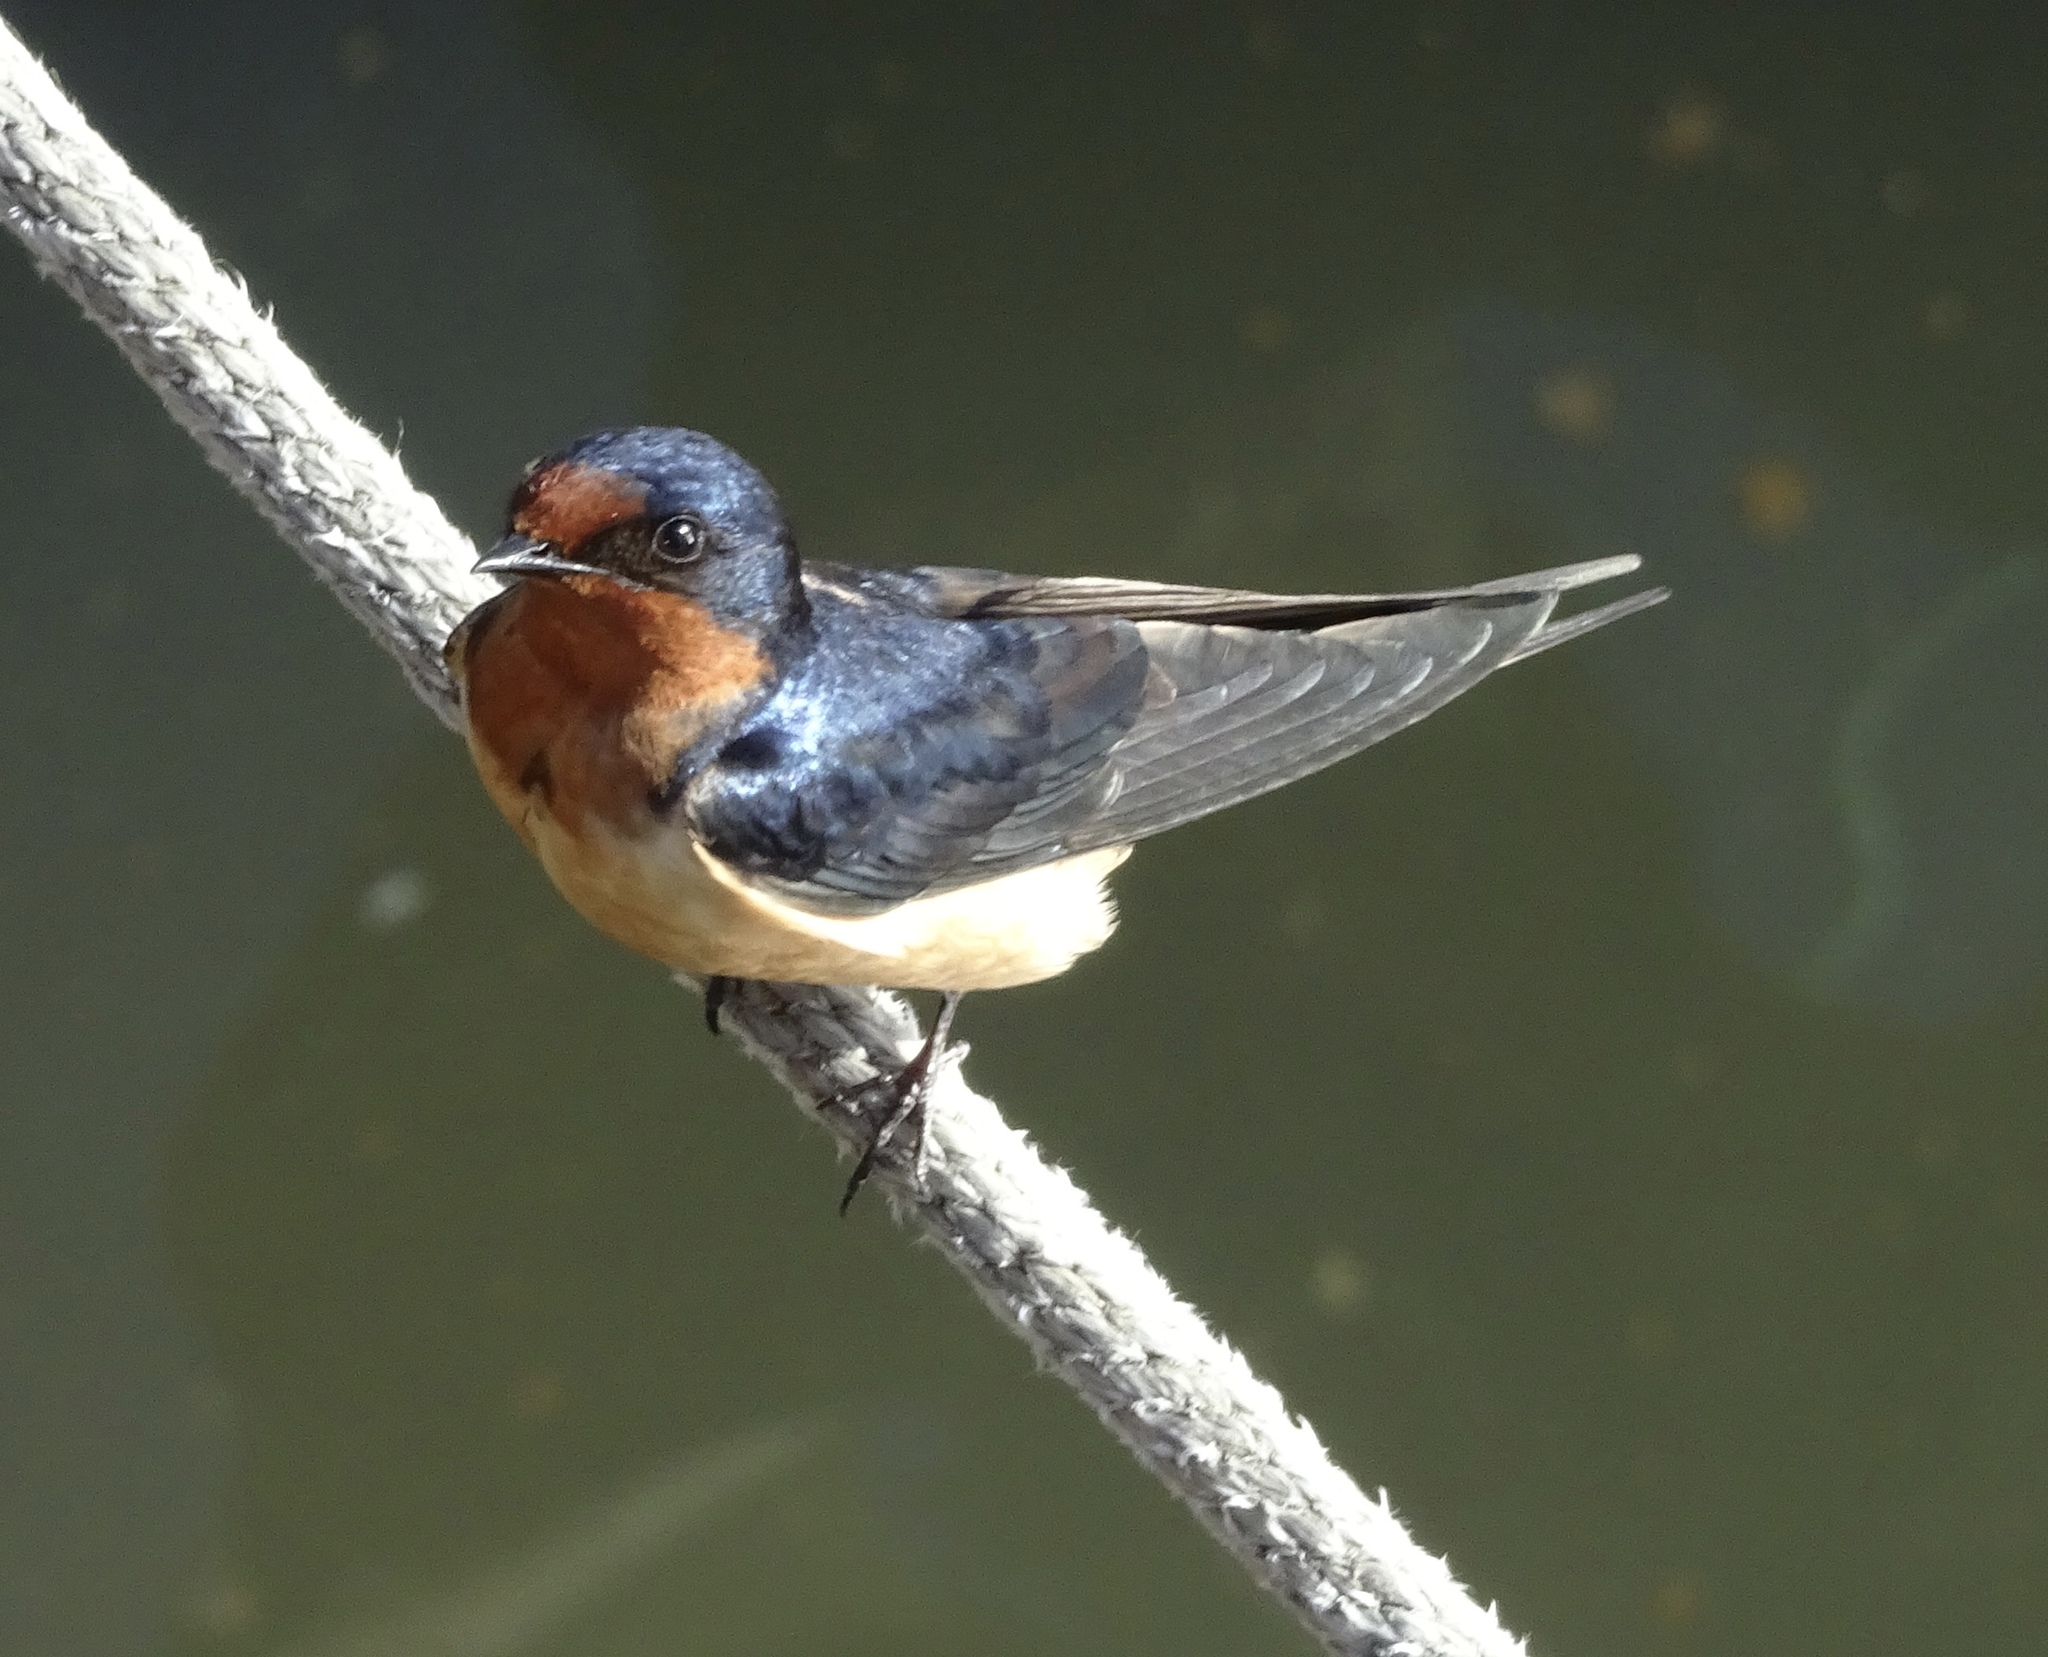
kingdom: Animalia
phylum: Chordata
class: Aves
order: Passeriformes
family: Hirundinidae
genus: Hirundo
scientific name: Hirundo rustica
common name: Barn swallow
